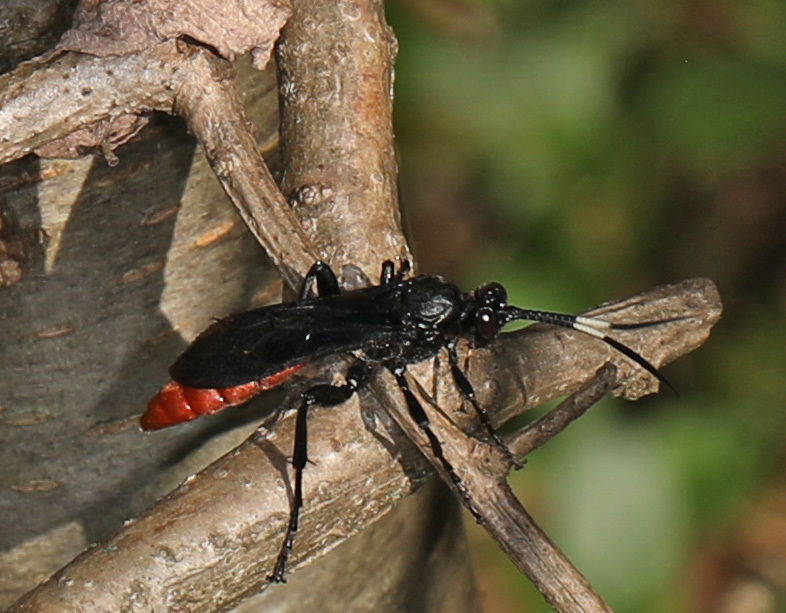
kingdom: Animalia
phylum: Arthropoda
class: Insecta
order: Hymenoptera
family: Ichneumonidae
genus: Protichneumon
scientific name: Protichneumon grandis
